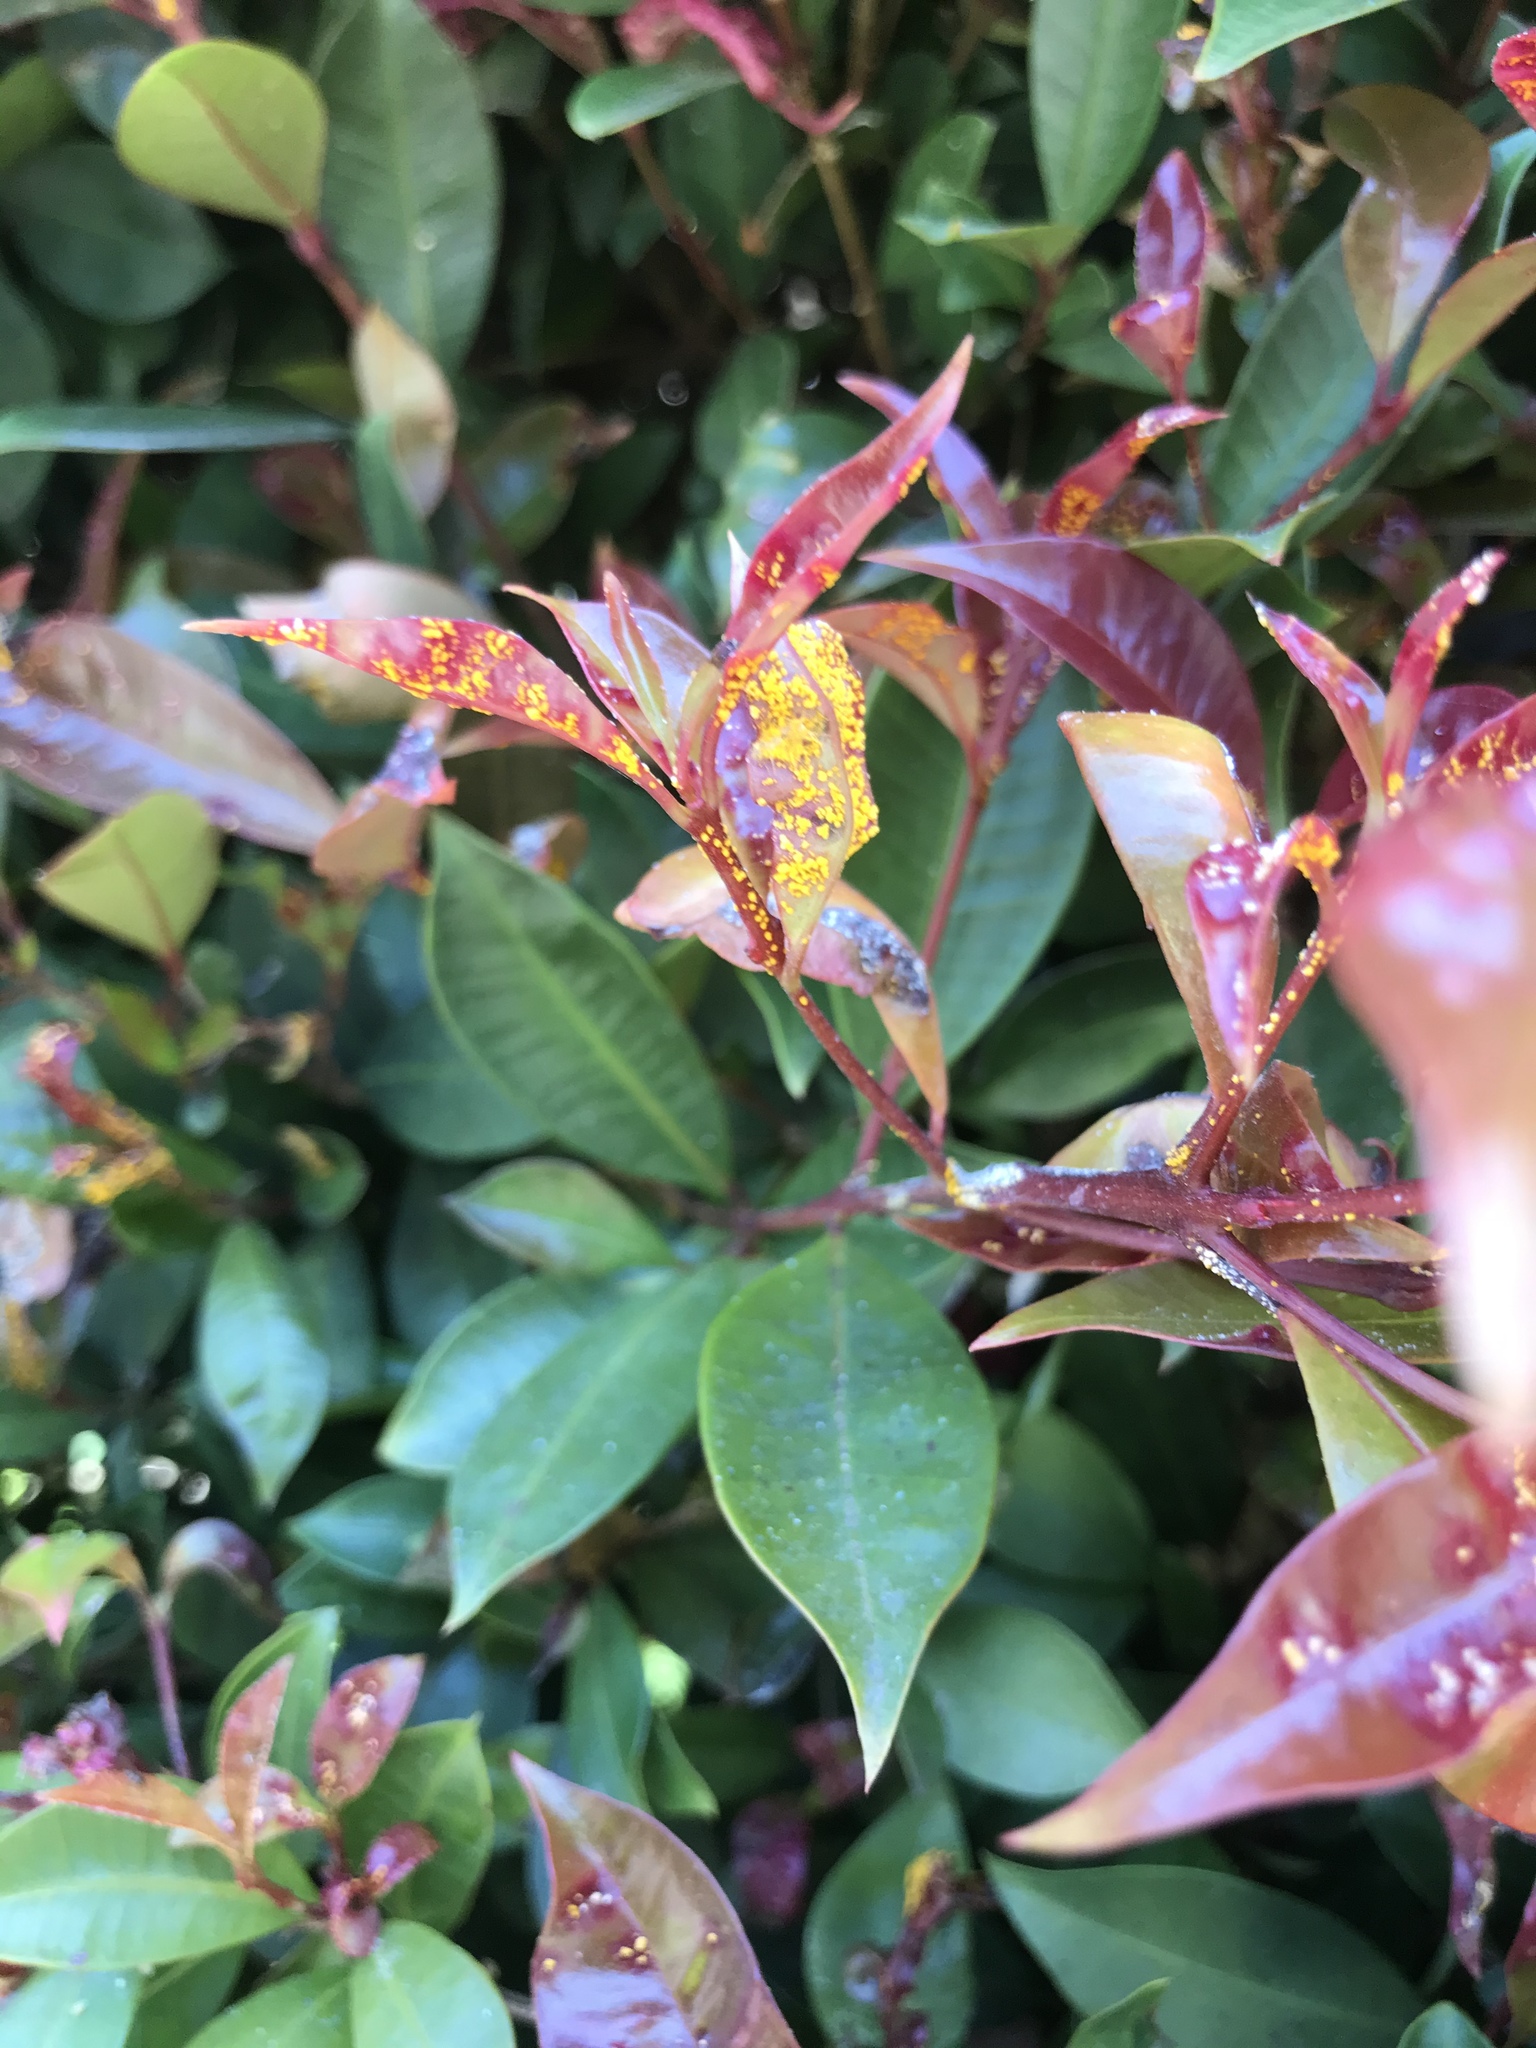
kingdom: Fungi
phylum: Basidiomycota
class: Pucciniomycetes
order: Pucciniales
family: Sphaerophragmiaceae
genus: Austropuccinia
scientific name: Austropuccinia psidii
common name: Myrtle rust
